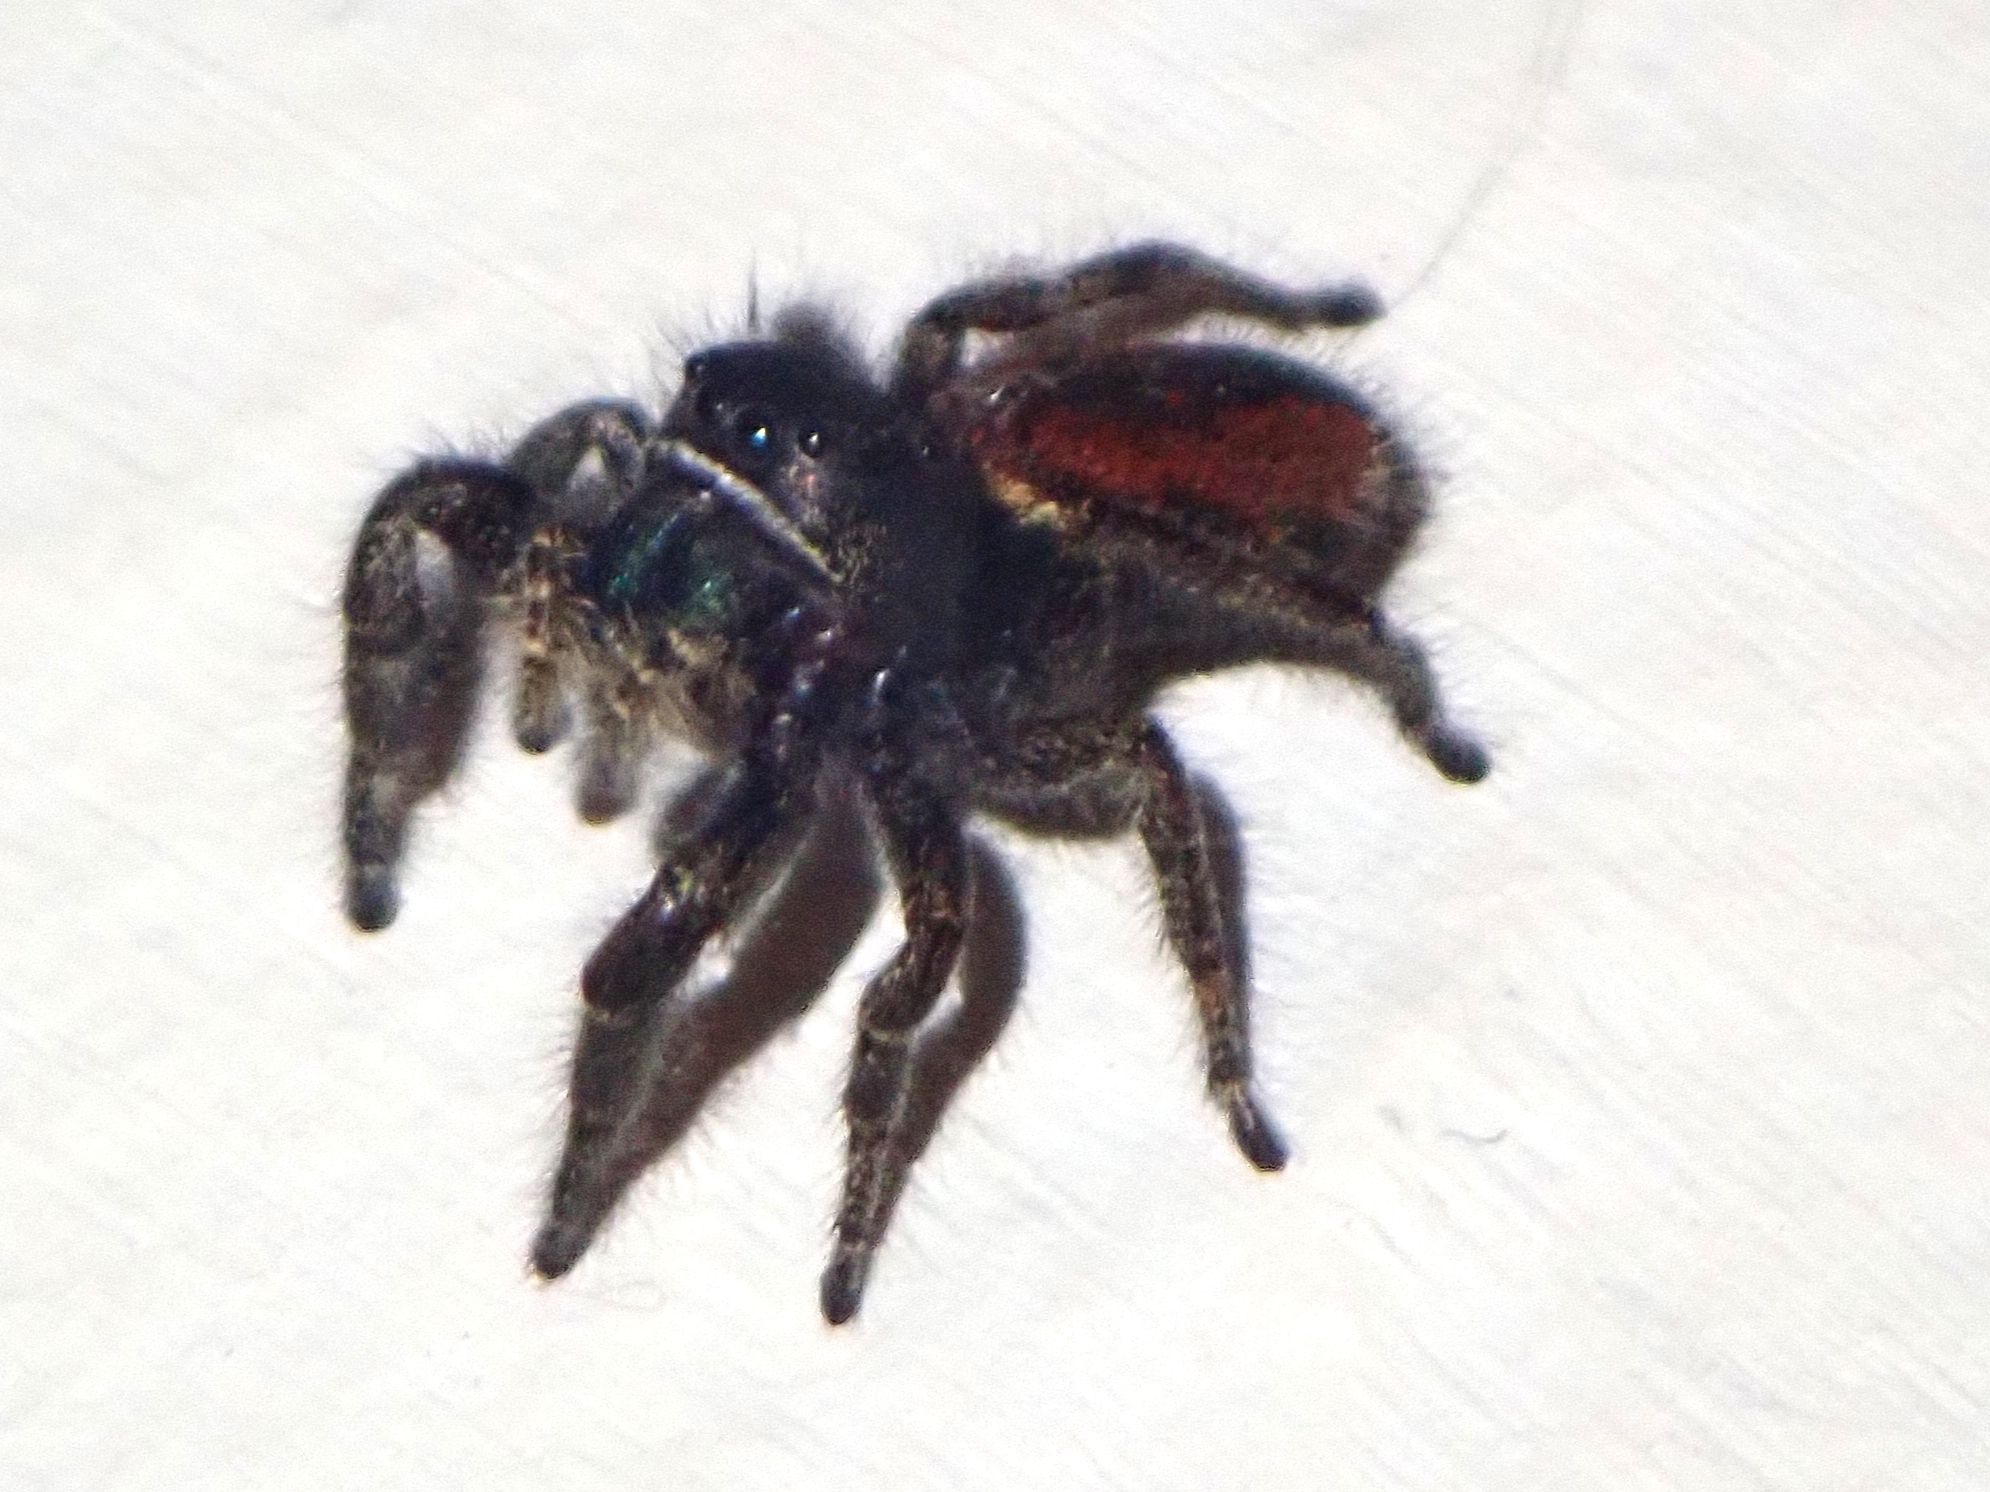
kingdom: Animalia
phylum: Arthropoda
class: Arachnida
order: Araneae
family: Salticidae
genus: Phidippus
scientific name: Phidippus johnsoni
